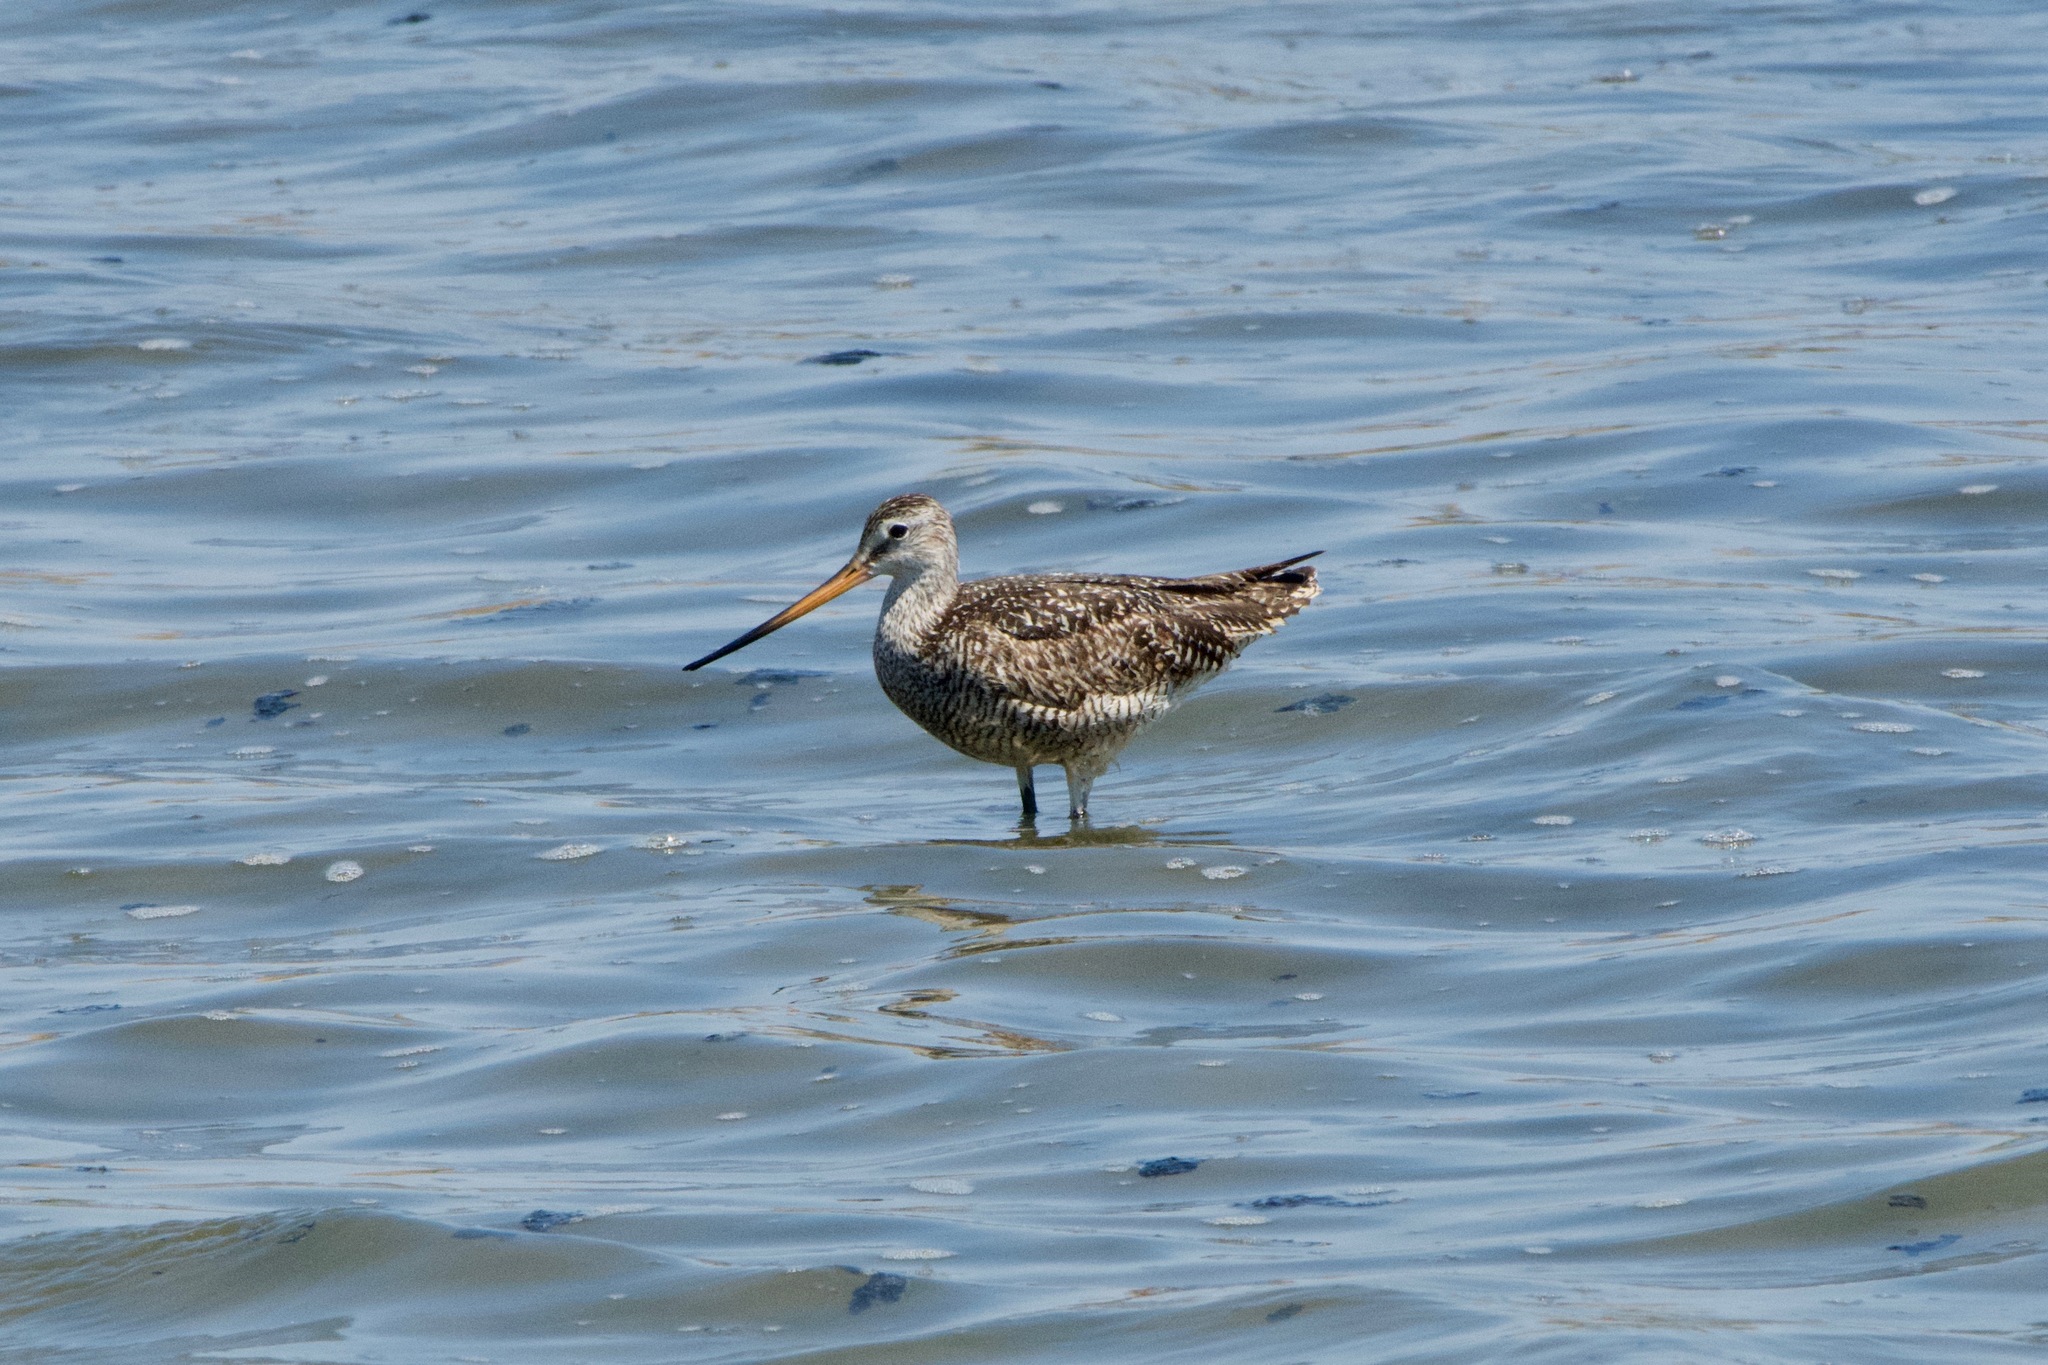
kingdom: Animalia
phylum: Chordata
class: Aves
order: Charadriiformes
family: Scolopacidae
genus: Limosa
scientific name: Limosa fedoa
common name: Marbled godwit
